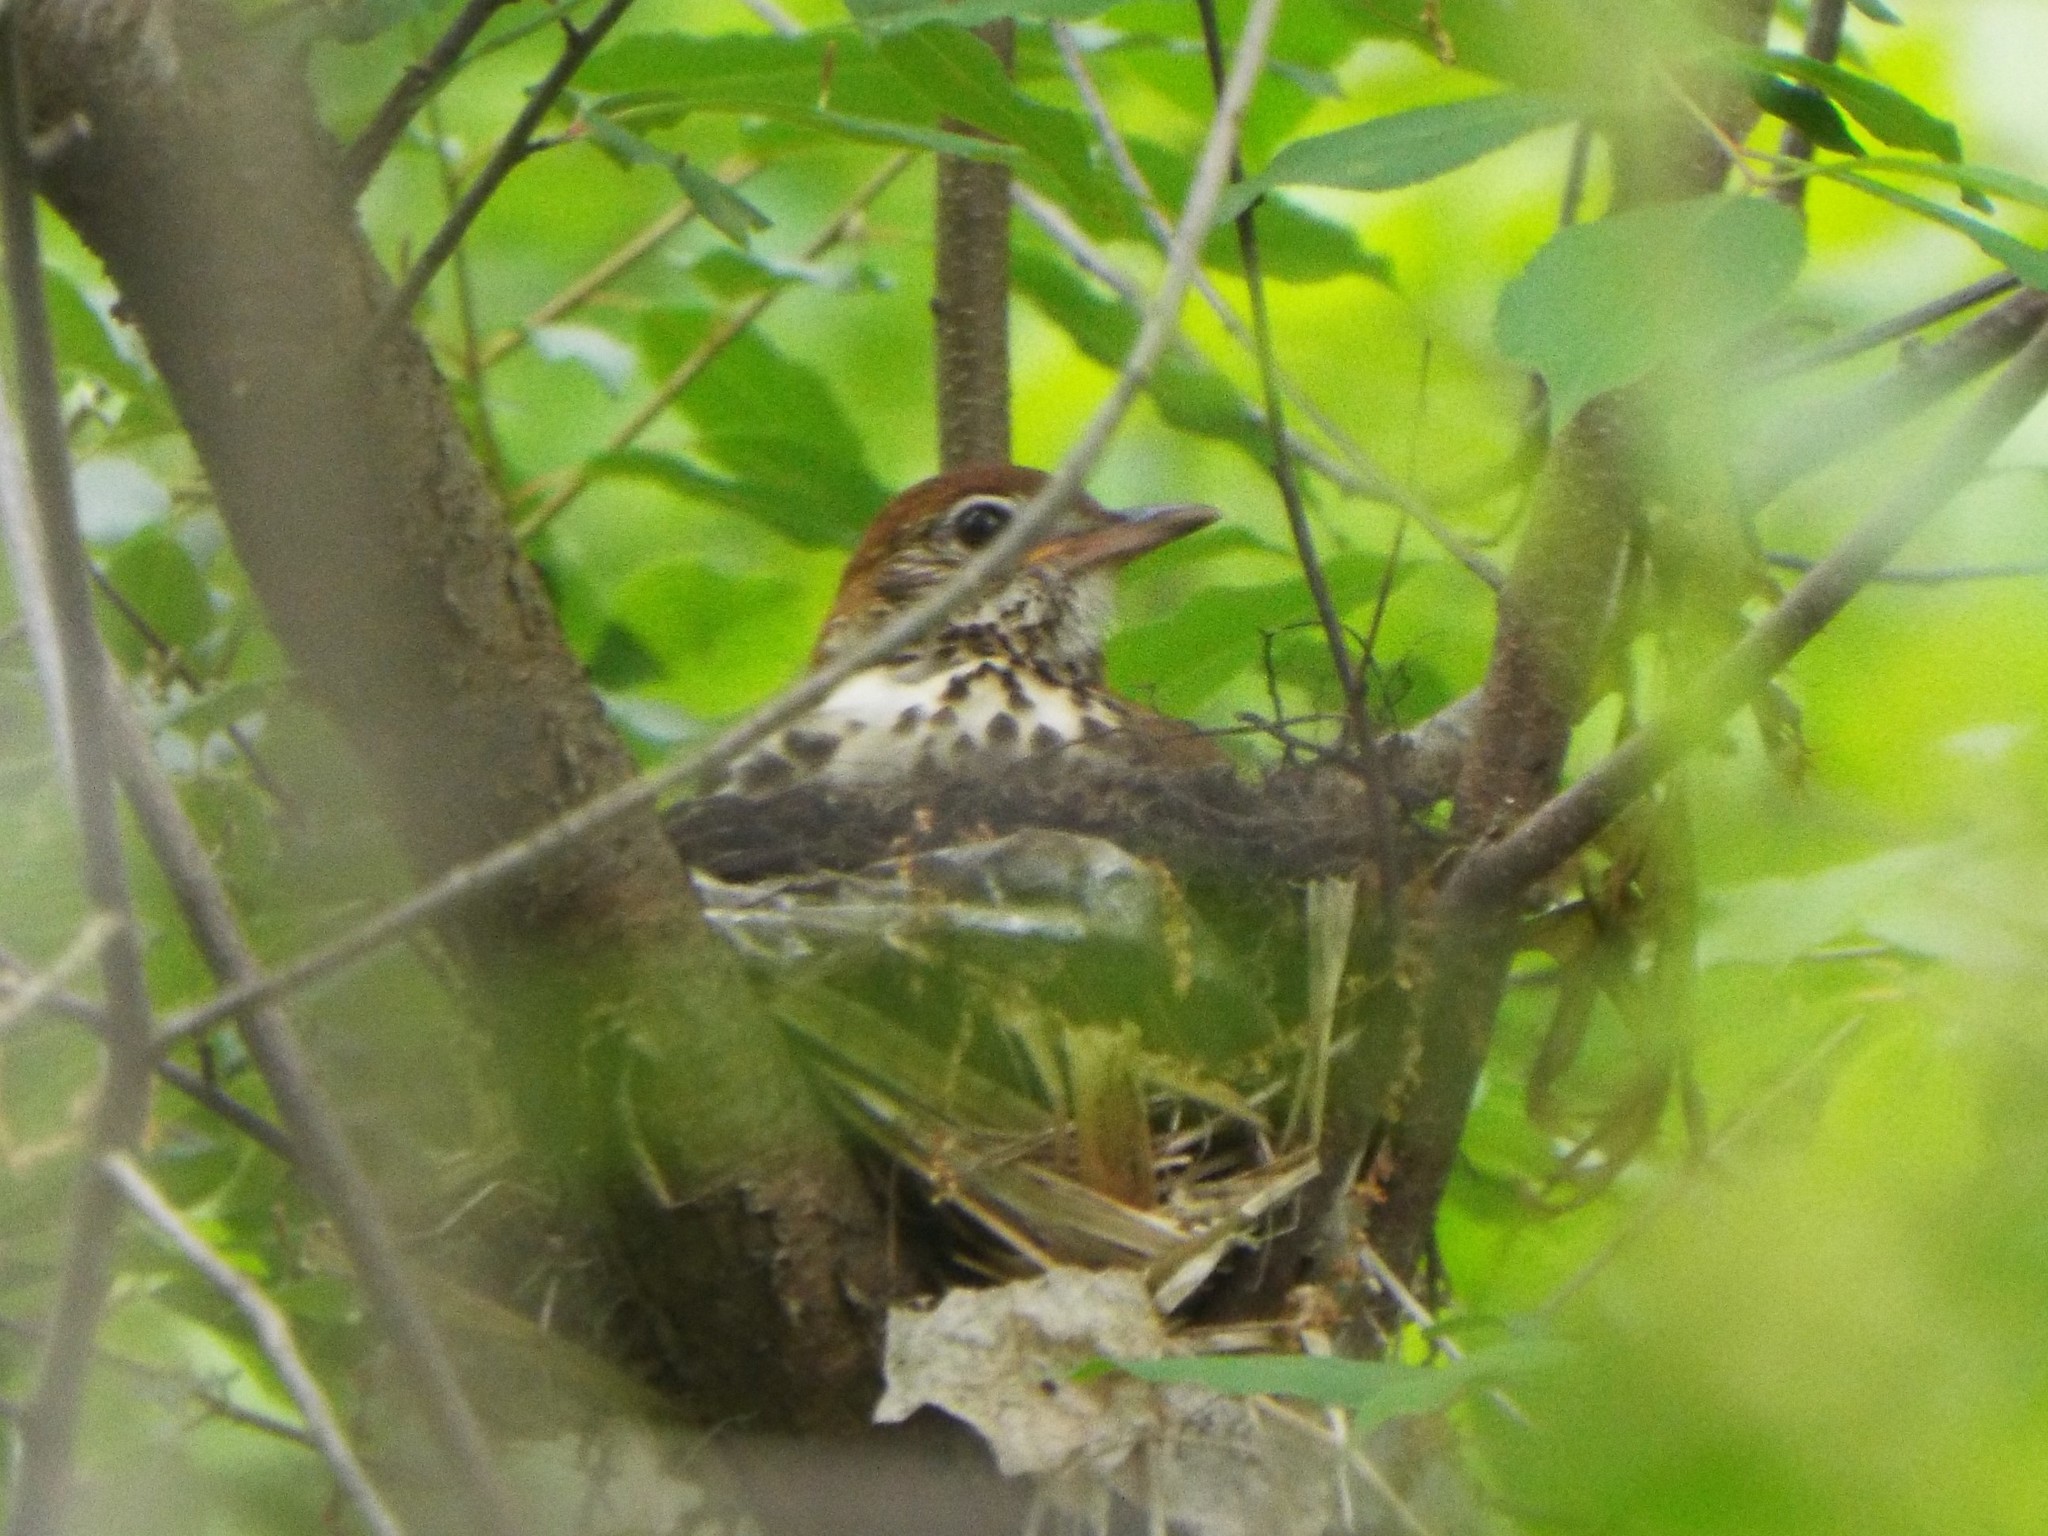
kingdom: Animalia
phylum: Chordata
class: Aves
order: Passeriformes
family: Turdidae
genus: Hylocichla
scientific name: Hylocichla mustelina
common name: Wood thrush
